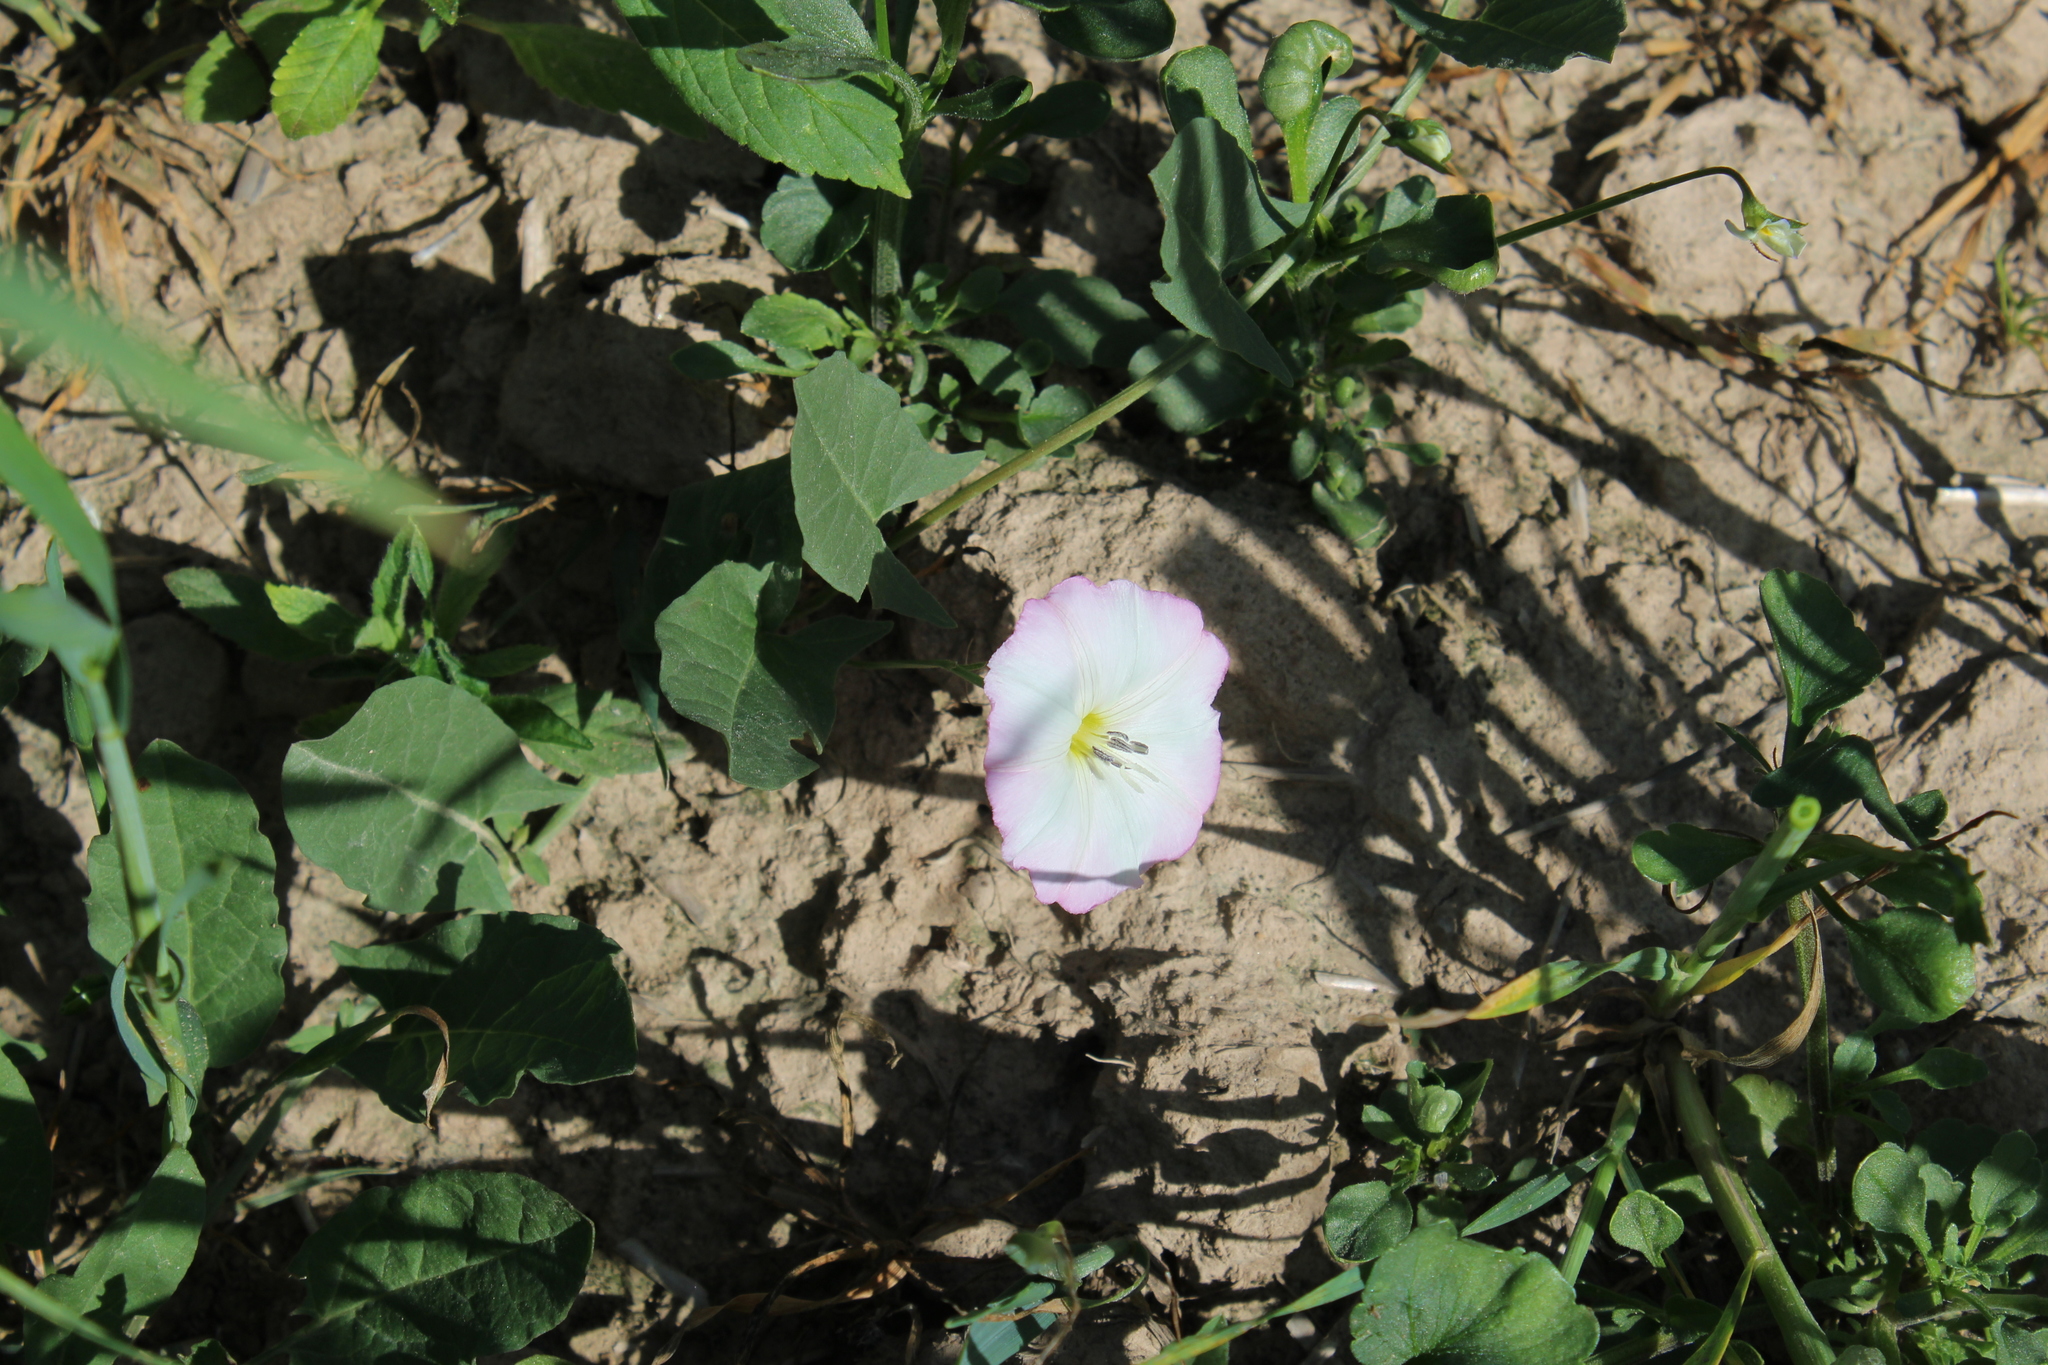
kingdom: Plantae
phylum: Tracheophyta
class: Magnoliopsida
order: Solanales
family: Convolvulaceae
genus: Convolvulus
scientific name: Convolvulus arvensis
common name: Field bindweed
